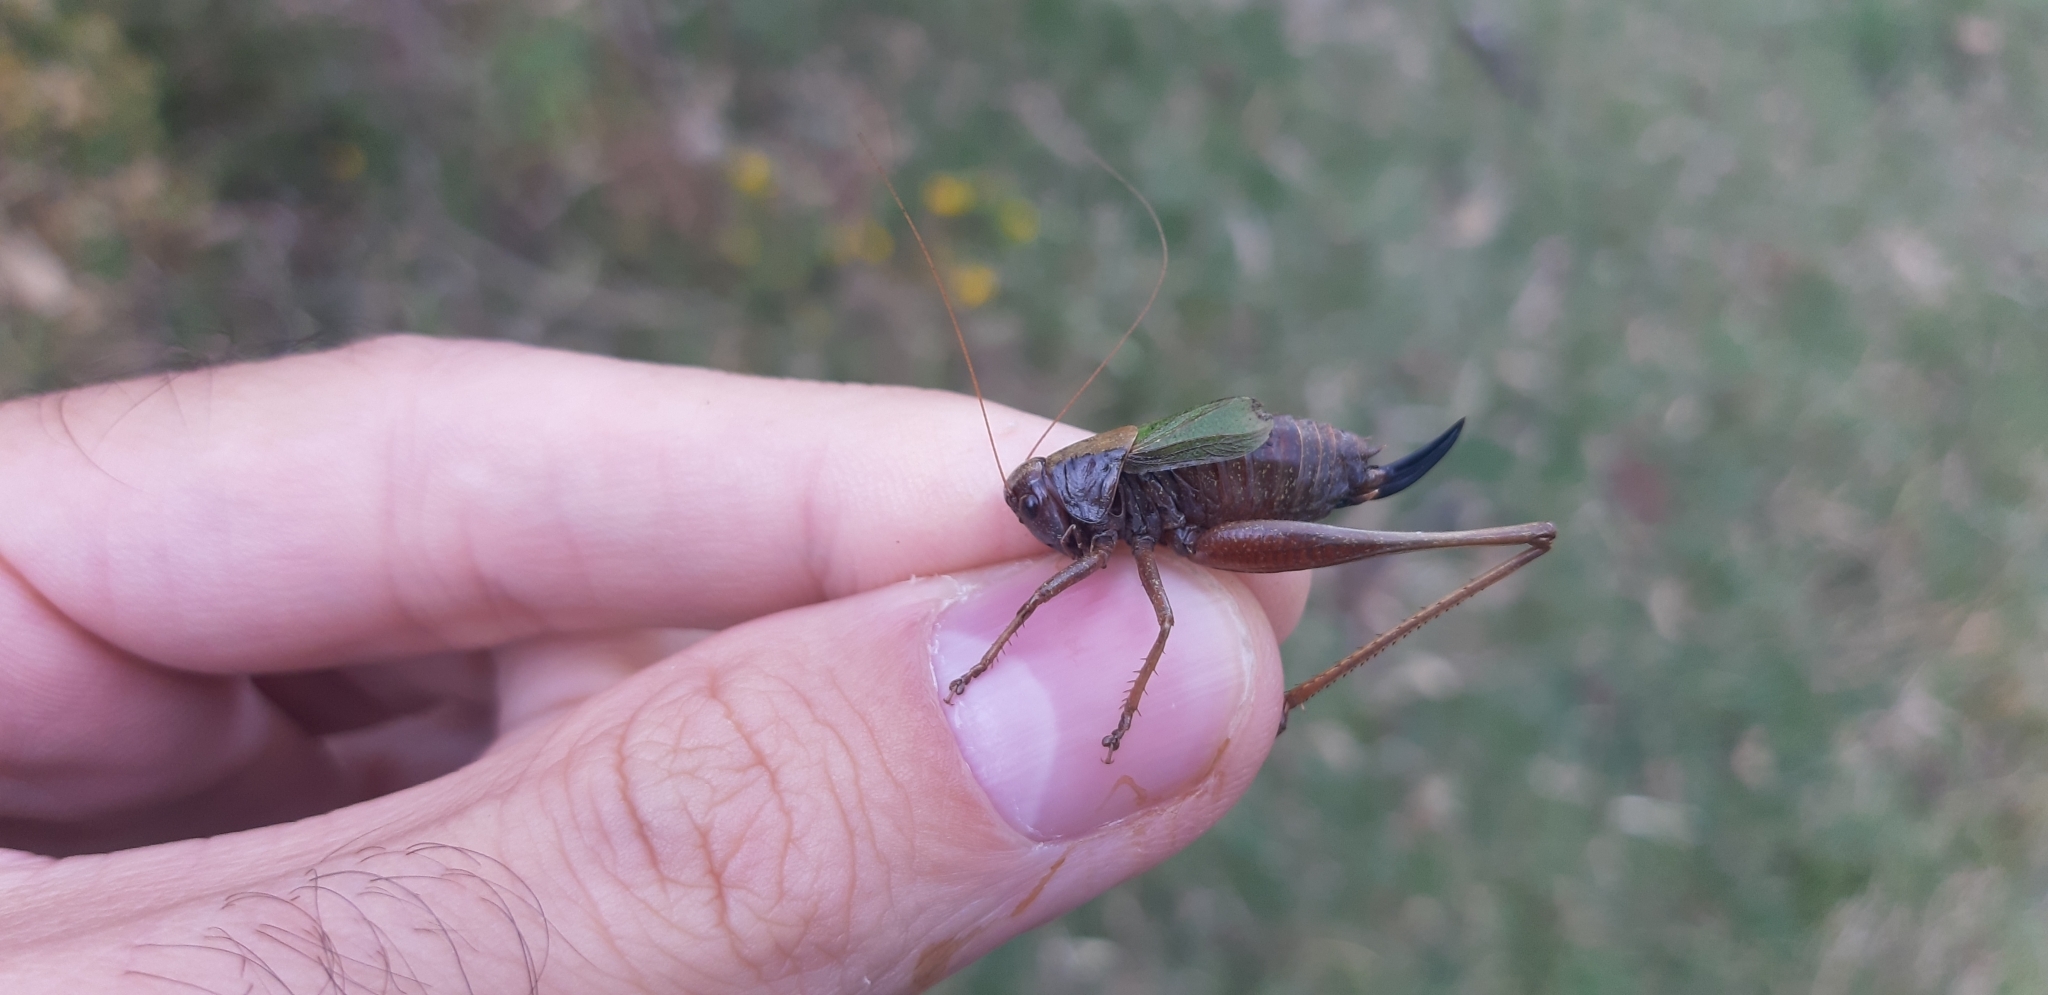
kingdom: Animalia
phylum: Arthropoda
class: Insecta
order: Orthoptera
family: Tettigoniidae
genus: Zeuneriana
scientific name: Zeuneriana abbreviata
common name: Basque bush-cricket
